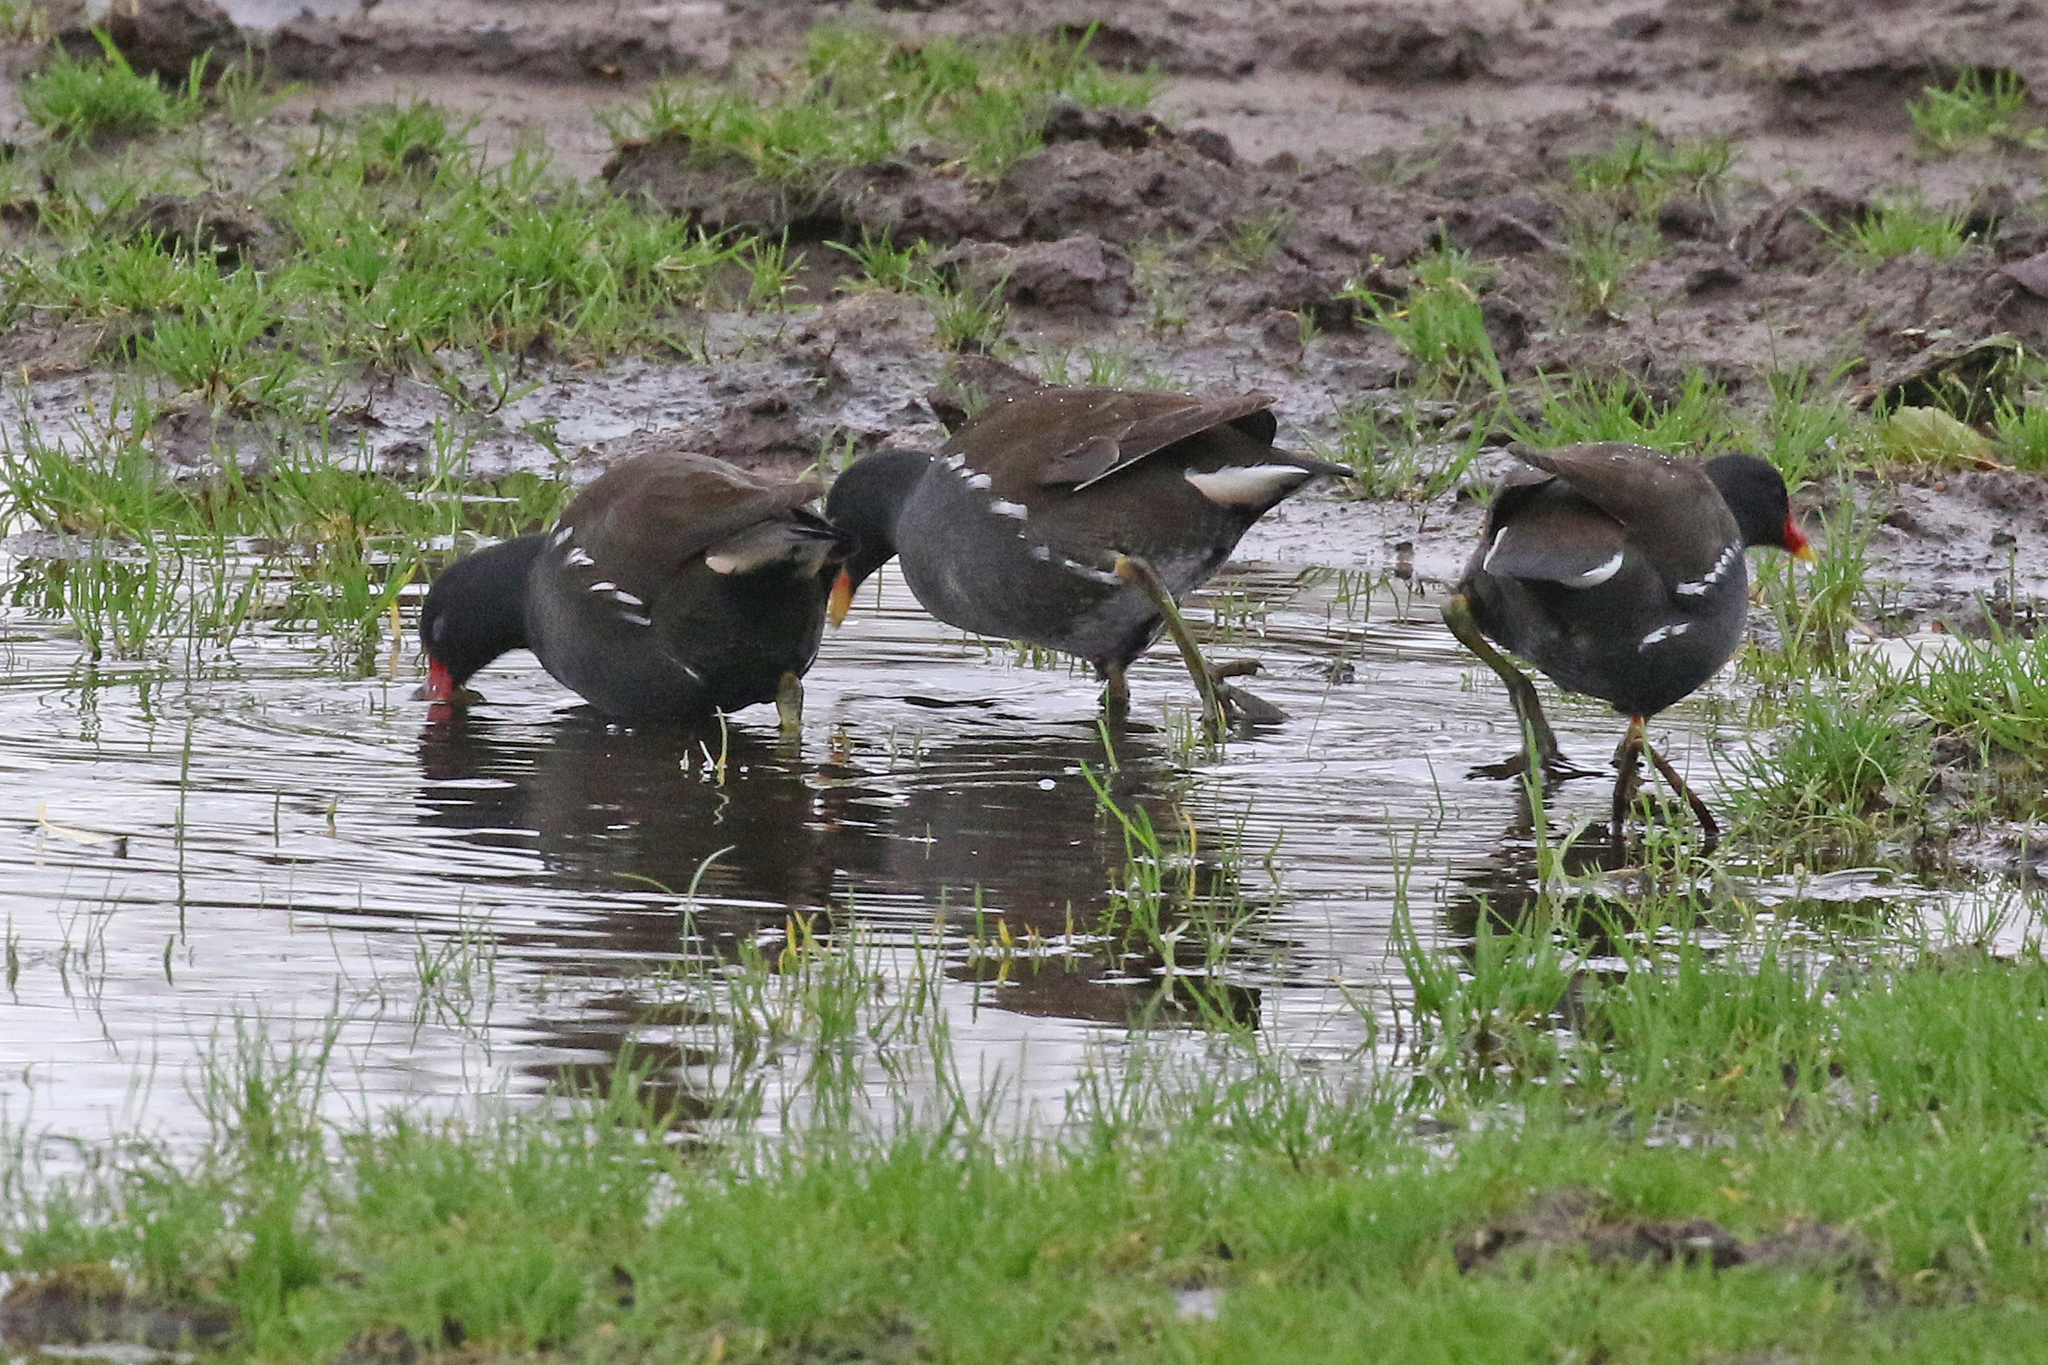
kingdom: Animalia
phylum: Chordata
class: Aves
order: Gruiformes
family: Rallidae
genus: Gallinula
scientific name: Gallinula chloropus
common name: Common moorhen
